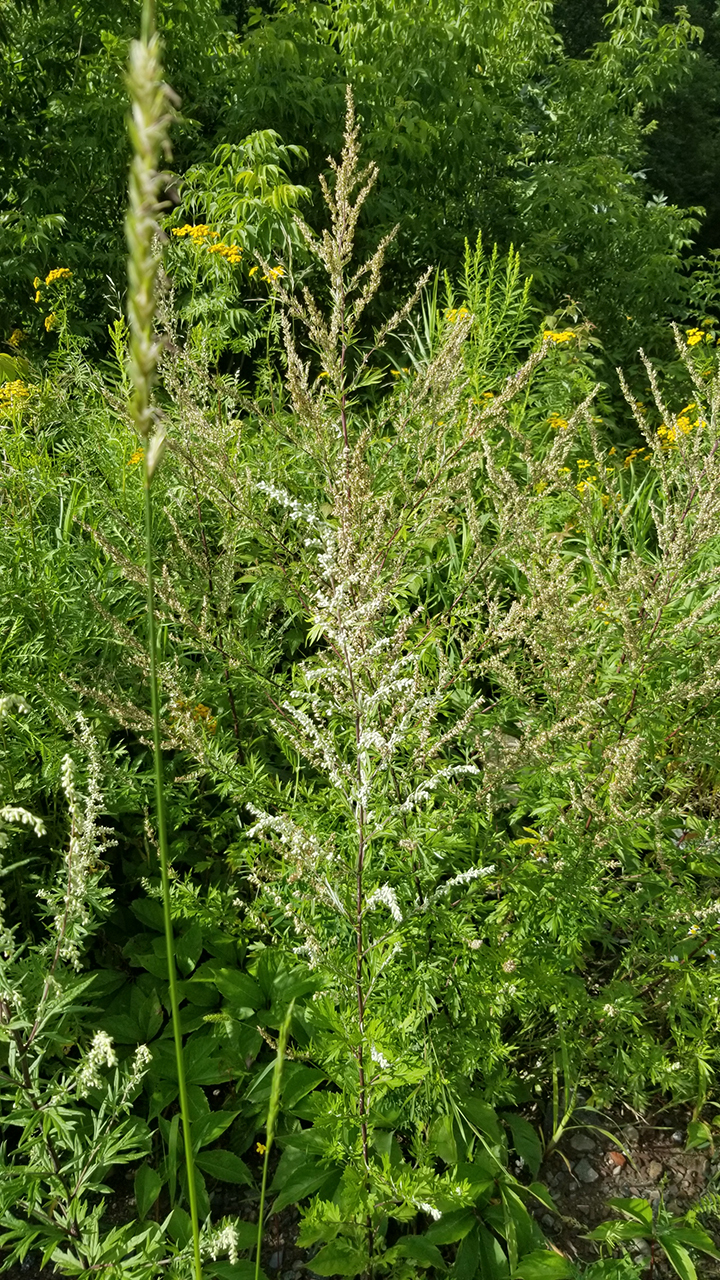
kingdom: Plantae
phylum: Tracheophyta
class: Magnoliopsida
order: Asterales
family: Asteraceae
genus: Artemisia
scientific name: Artemisia vulgaris
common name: Mugwort
